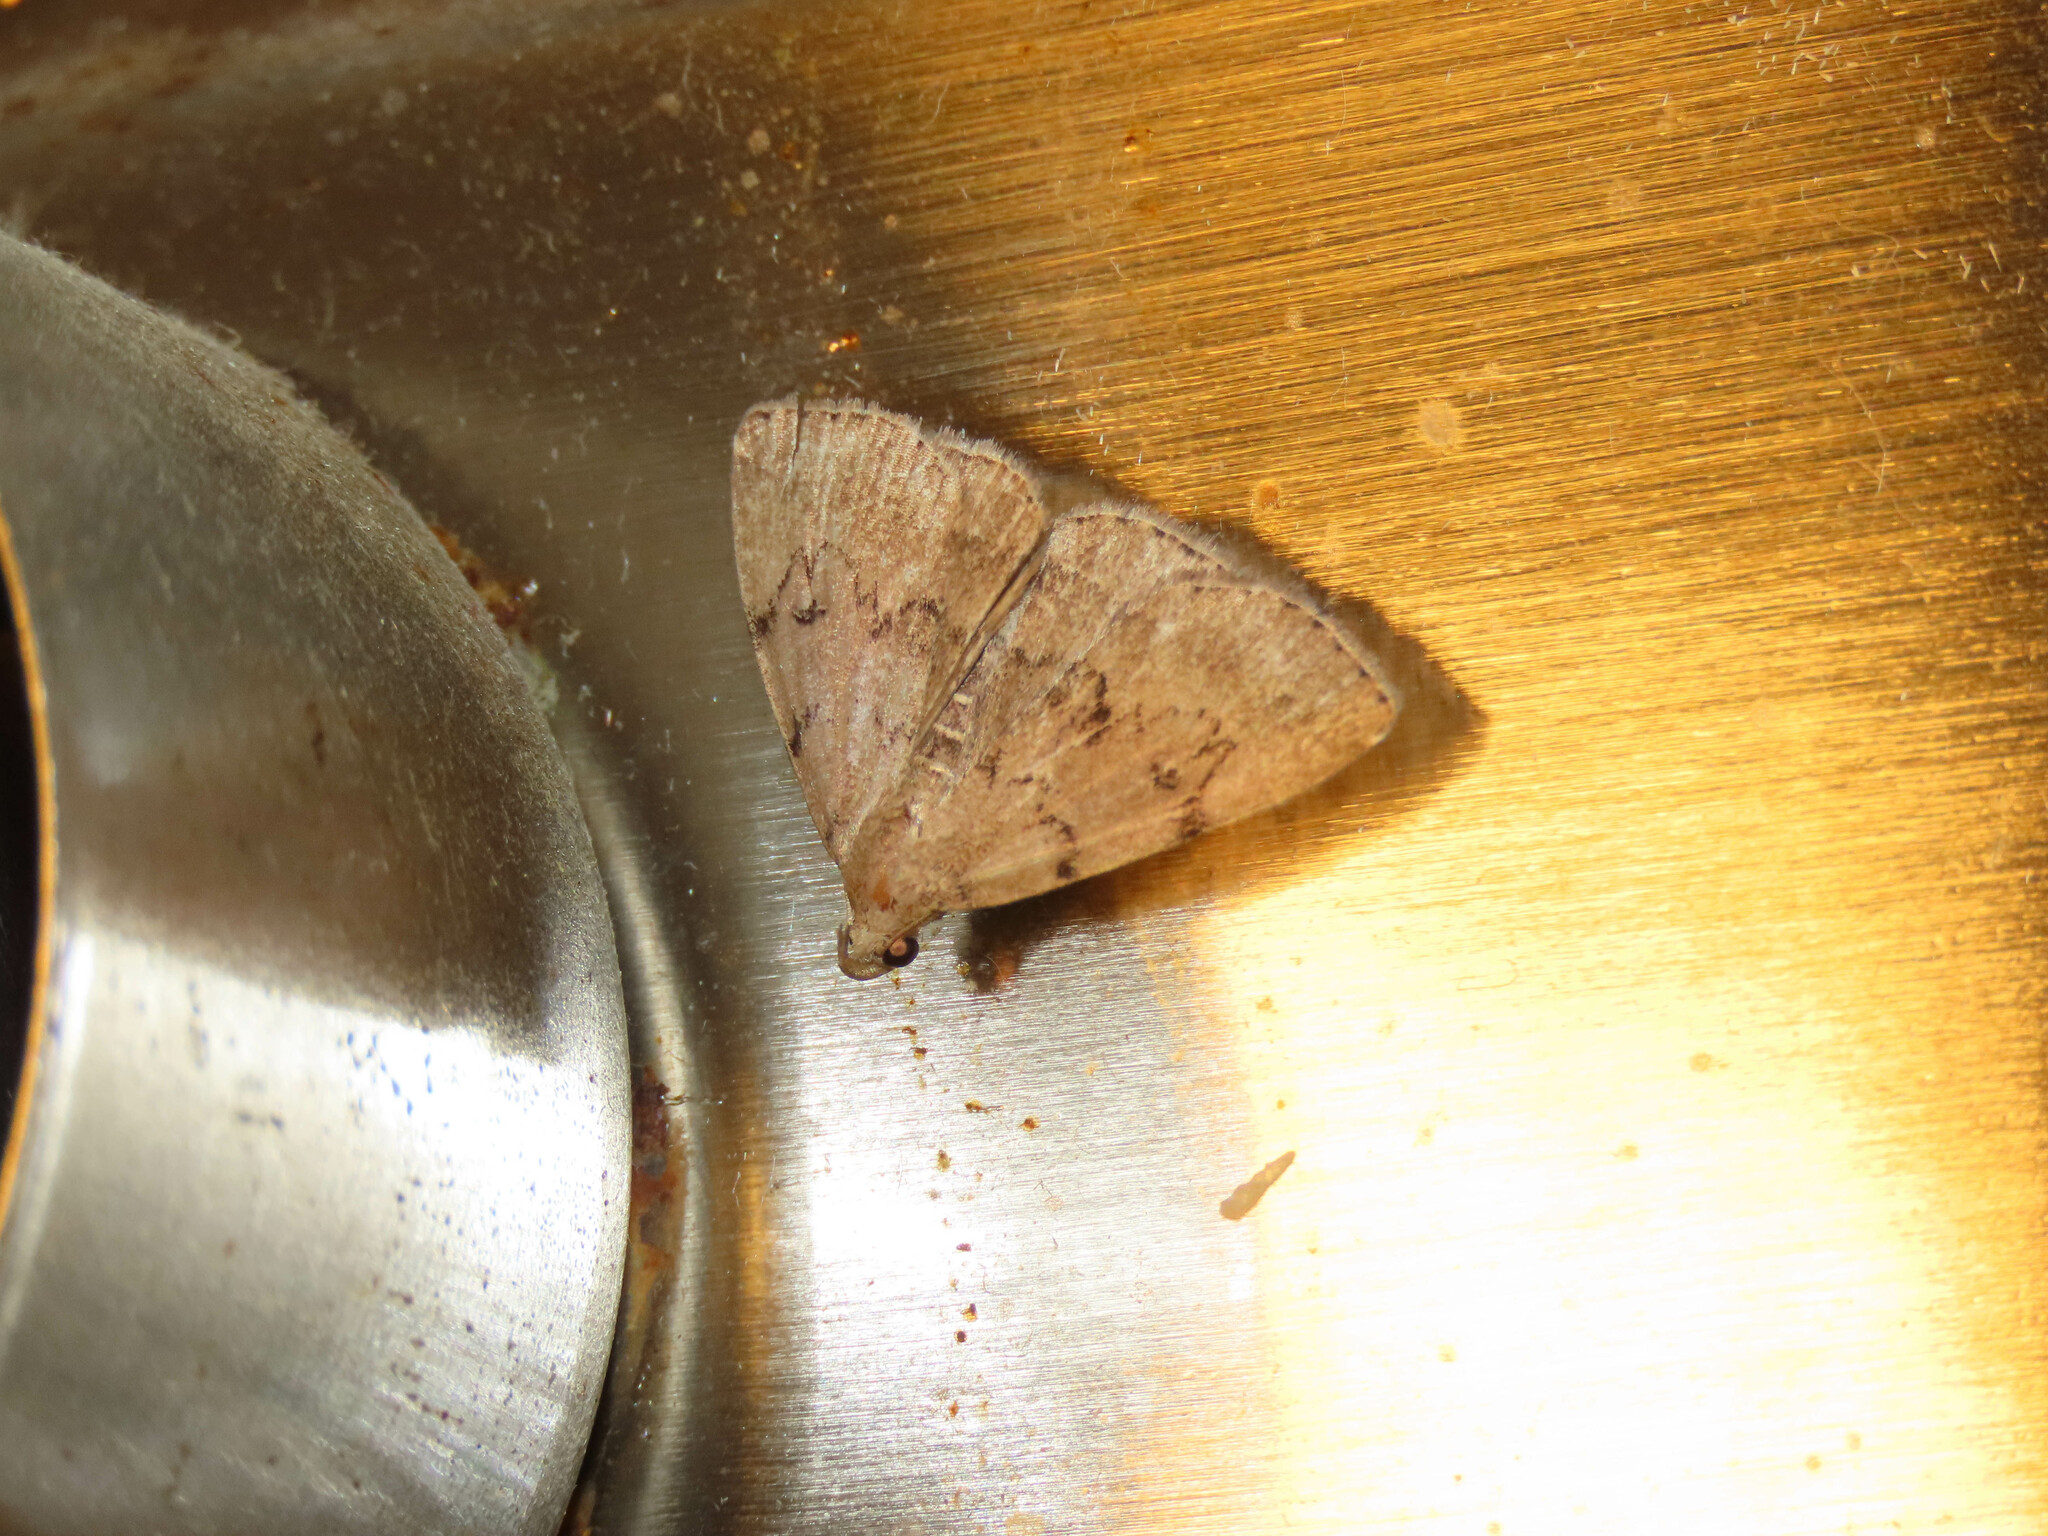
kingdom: Animalia
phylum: Arthropoda
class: Insecta
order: Lepidoptera
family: Erebidae
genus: Zanclognatha
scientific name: Zanclognatha dentata
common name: Toothed fan-foot
